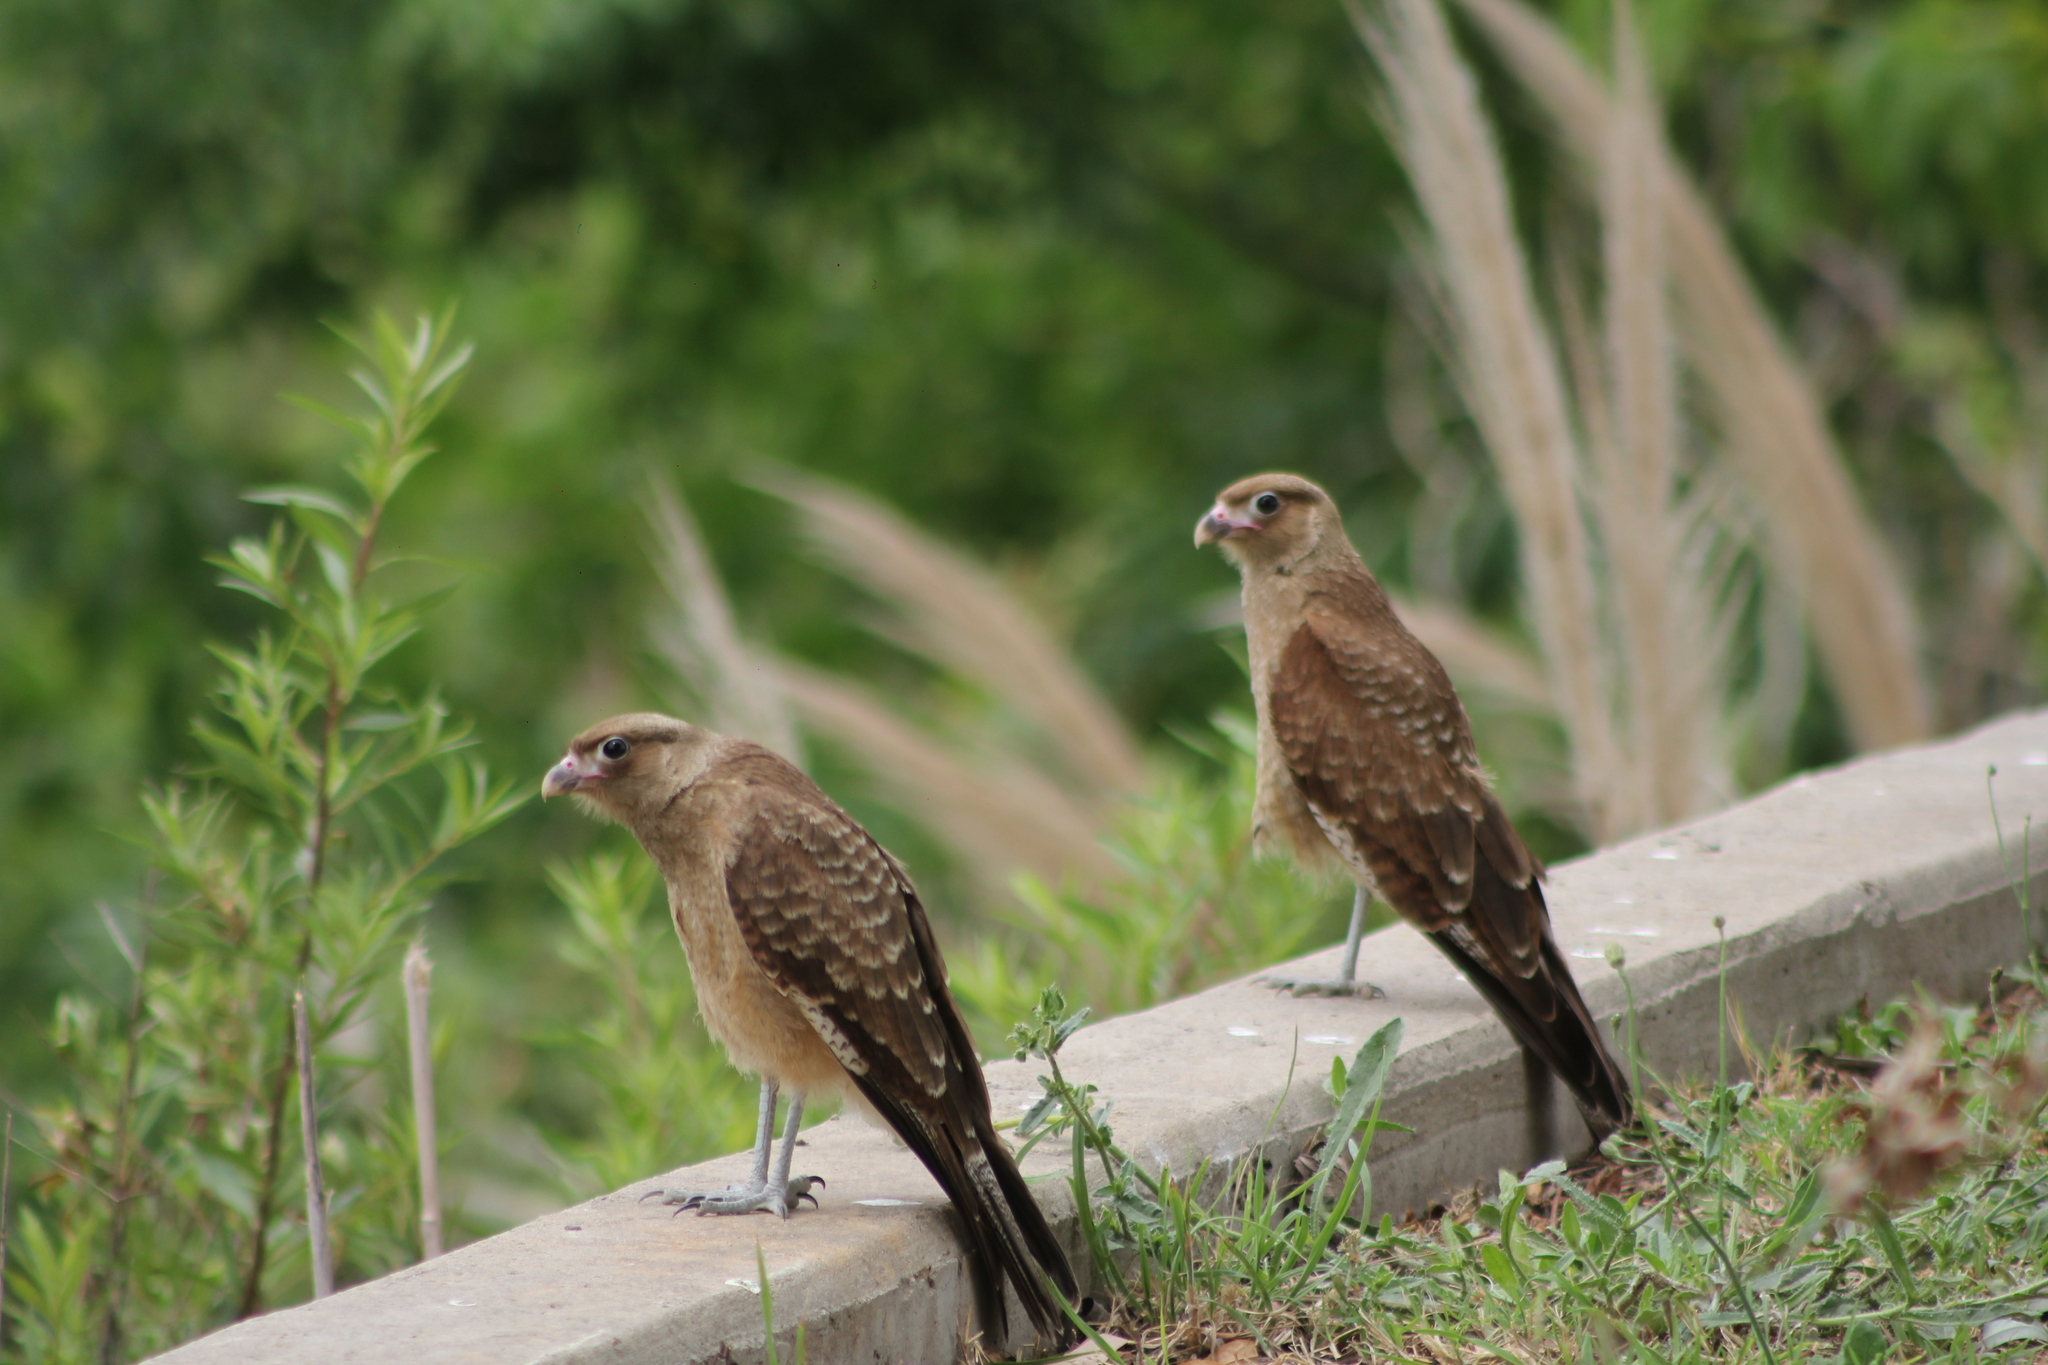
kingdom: Animalia
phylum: Chordata
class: Aves
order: Falconiformes
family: Falconidae
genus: Daptrius
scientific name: Daptrius
